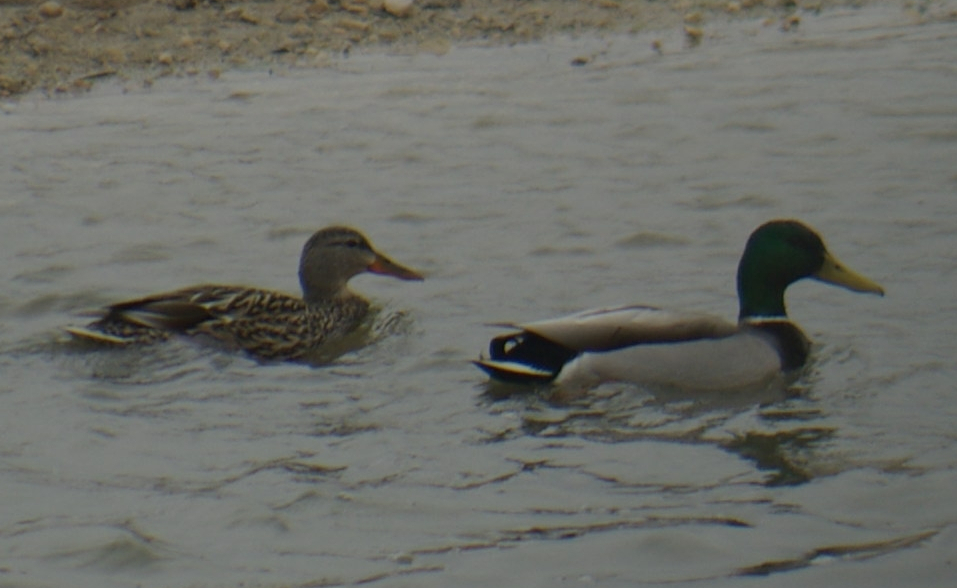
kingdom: Animalia
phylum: Chordata
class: Aves
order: Anseriformes
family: Anatidae
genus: Anas
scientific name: Anas platyrhynchos
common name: Mallard
